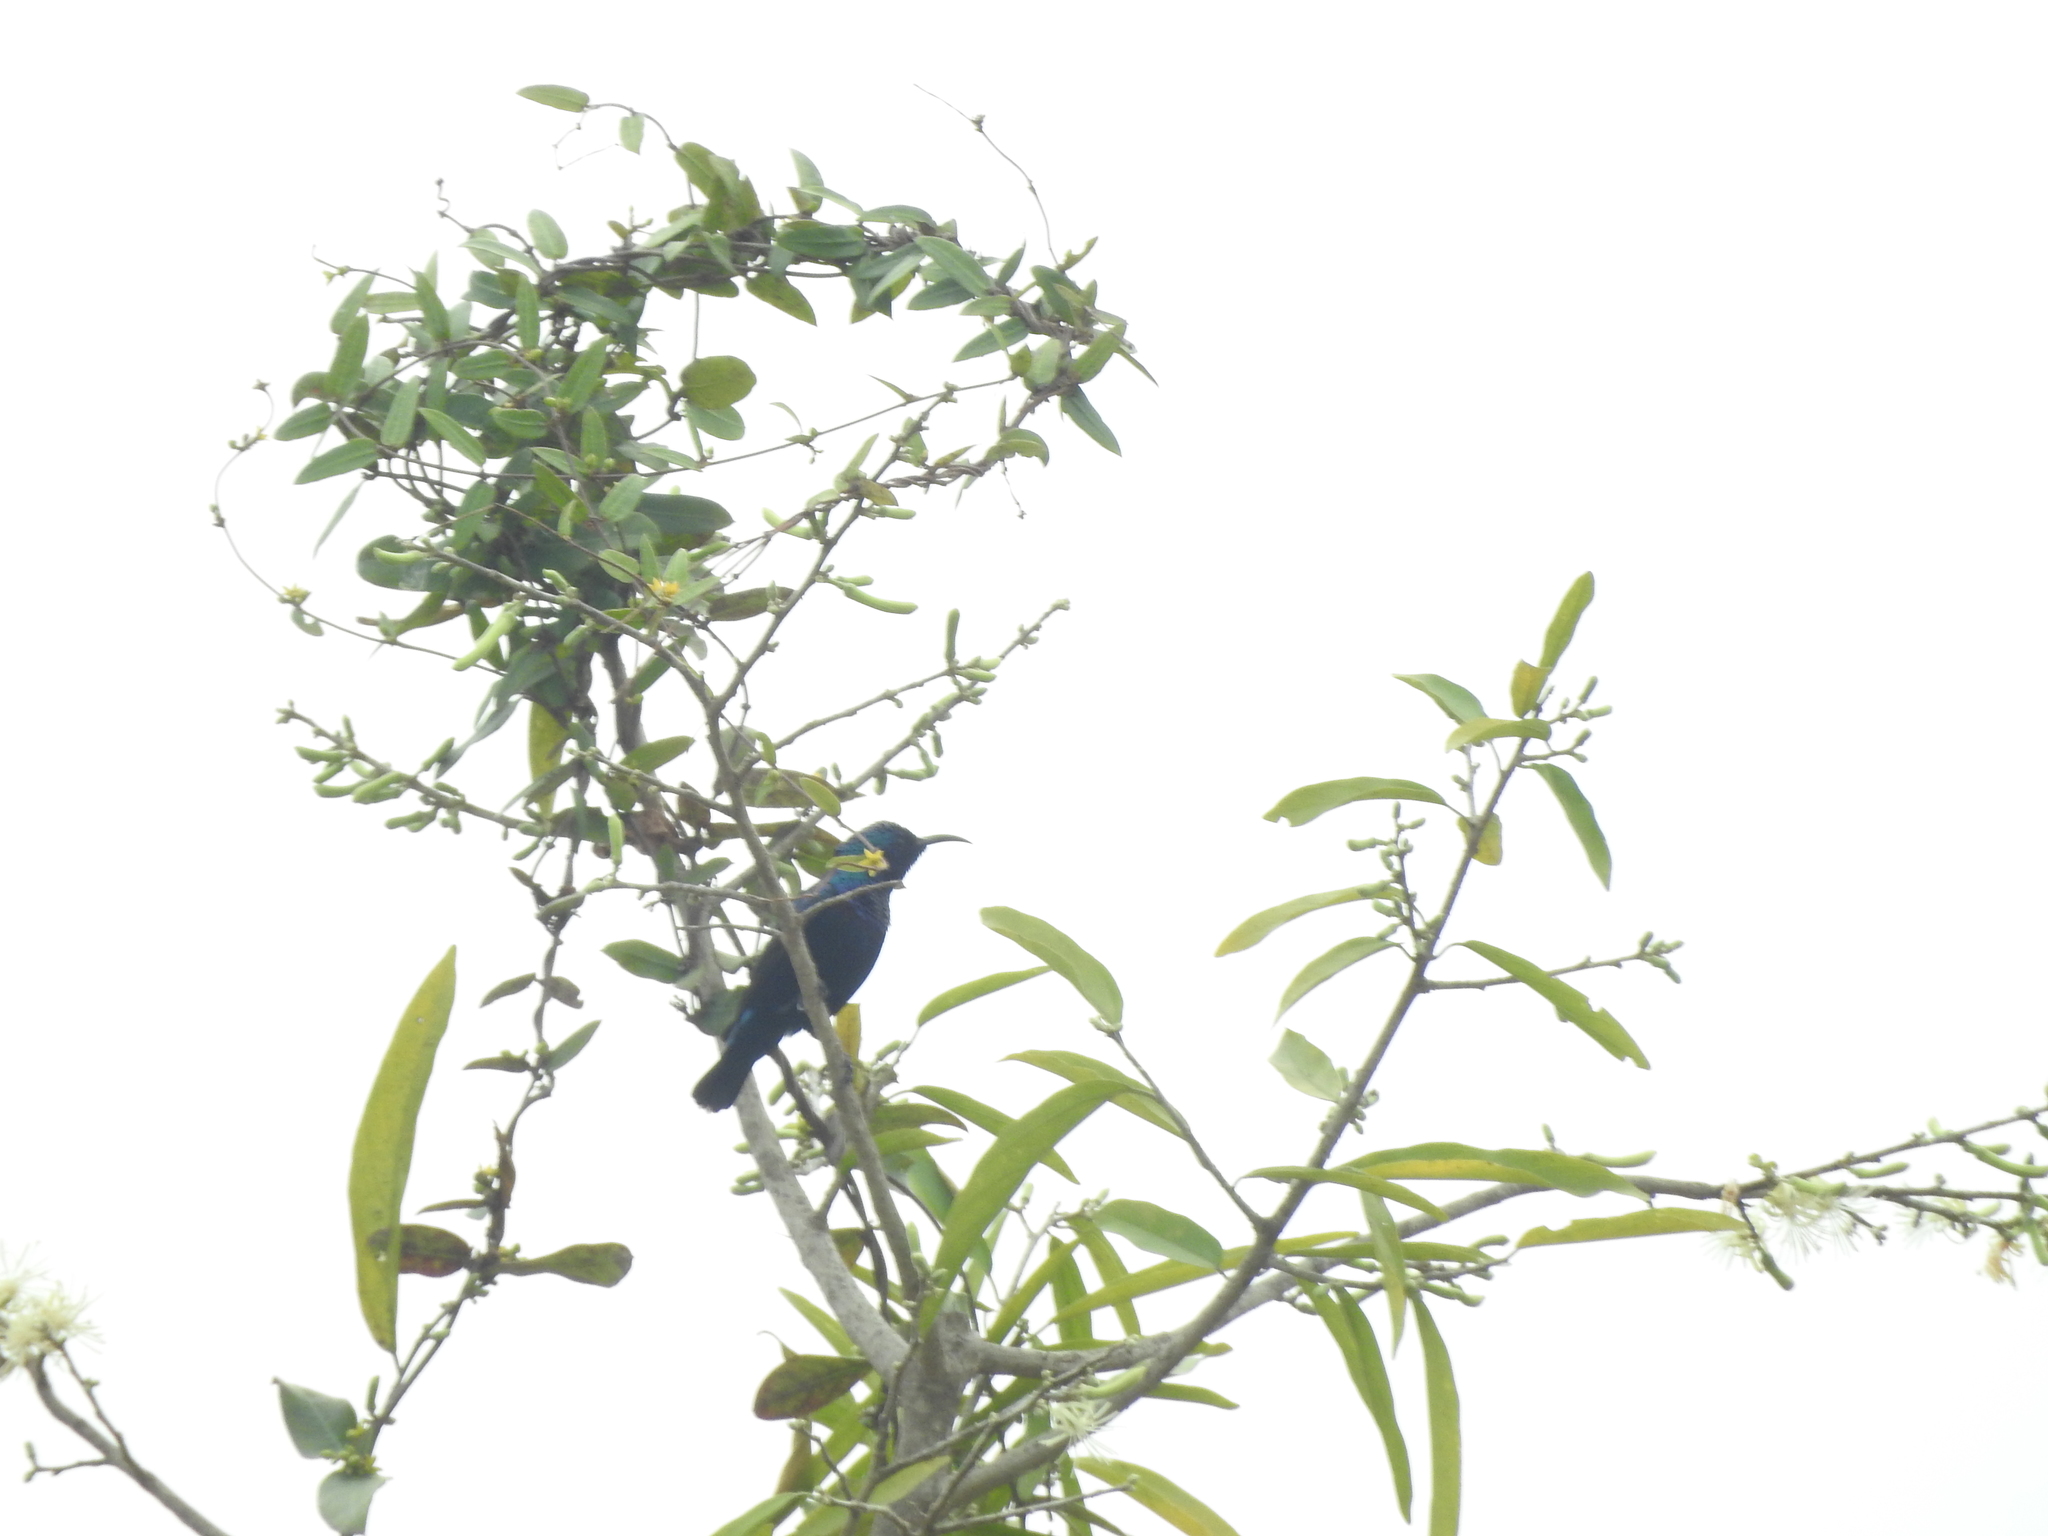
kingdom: Animalia
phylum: Chordata
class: Aves
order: Passeriformes
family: Nectariniidae
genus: Cinnyris
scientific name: Cinnyris asiaticus
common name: Purple sunbird
